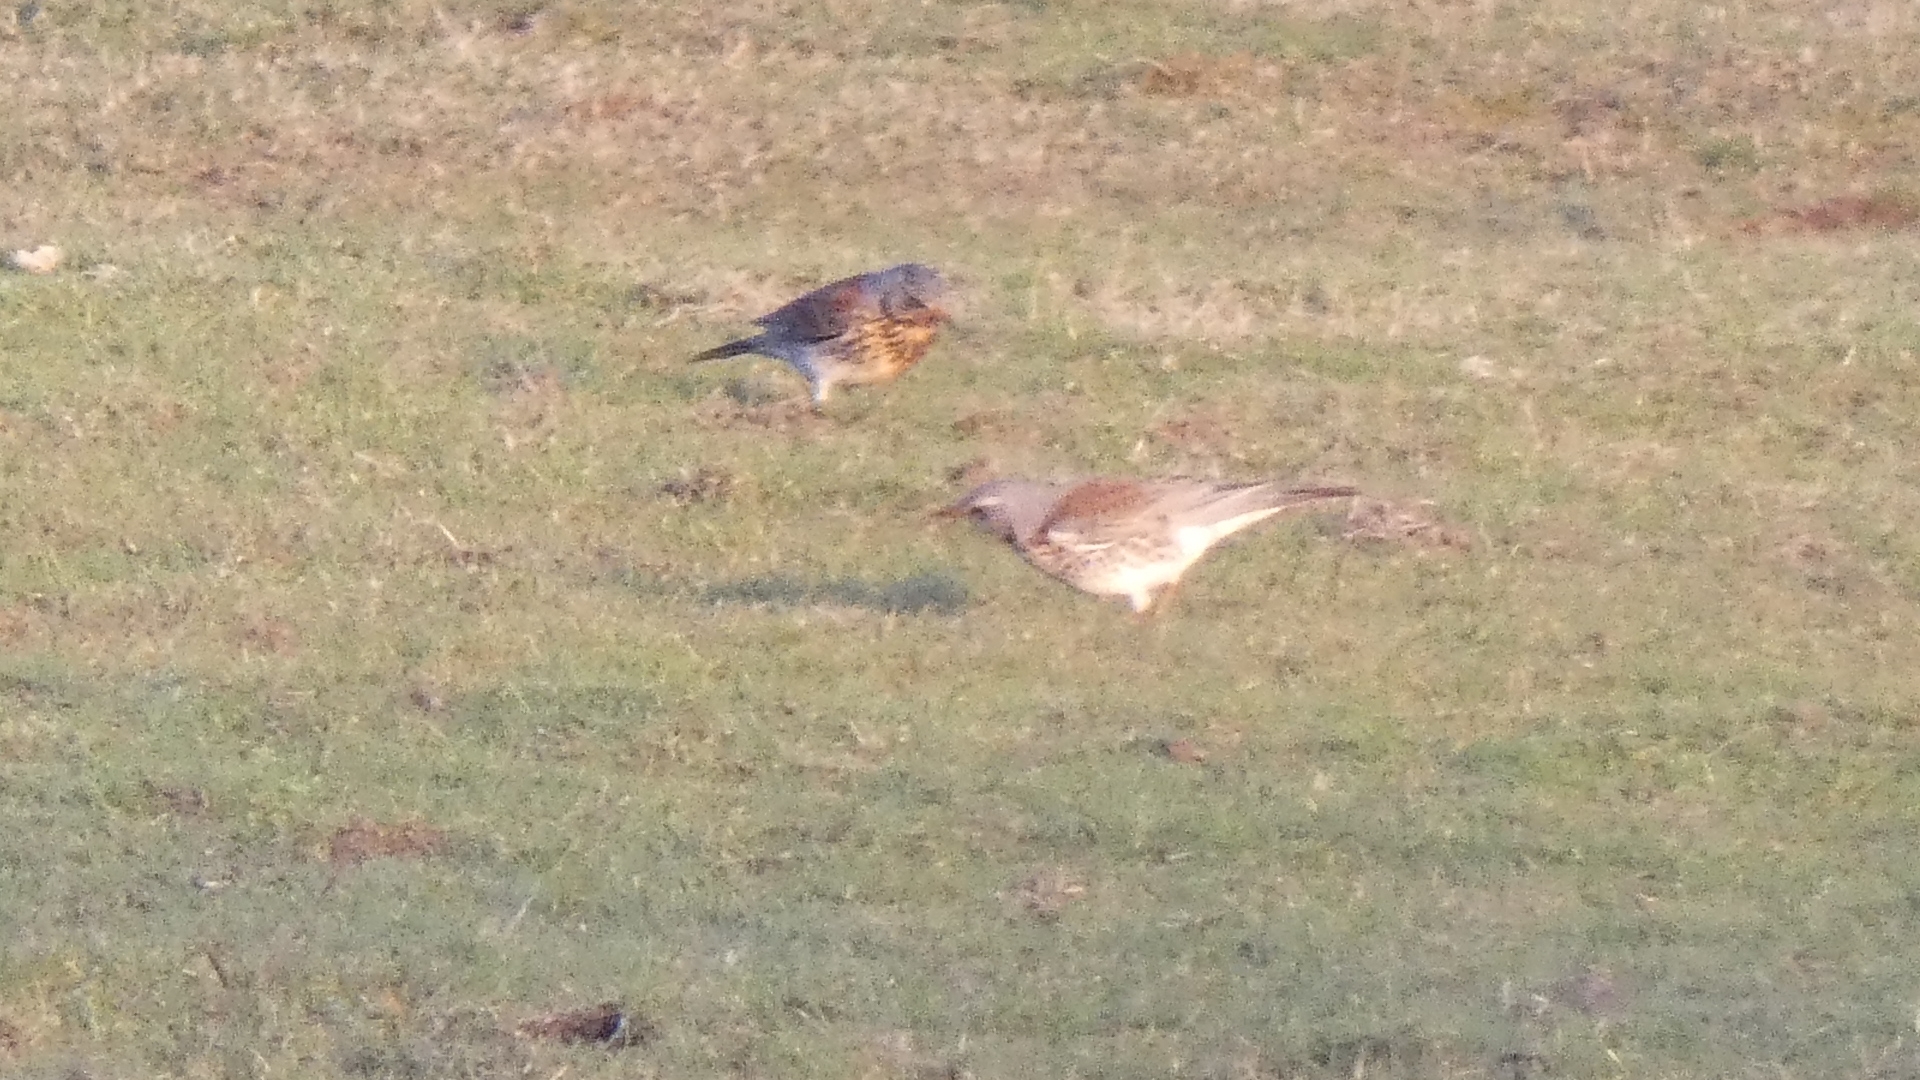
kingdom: Animalia
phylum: Chordata
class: Aves
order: Passeriformes
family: Turdidae
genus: Turdus
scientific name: Turdus pilaris
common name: Fieldfare
